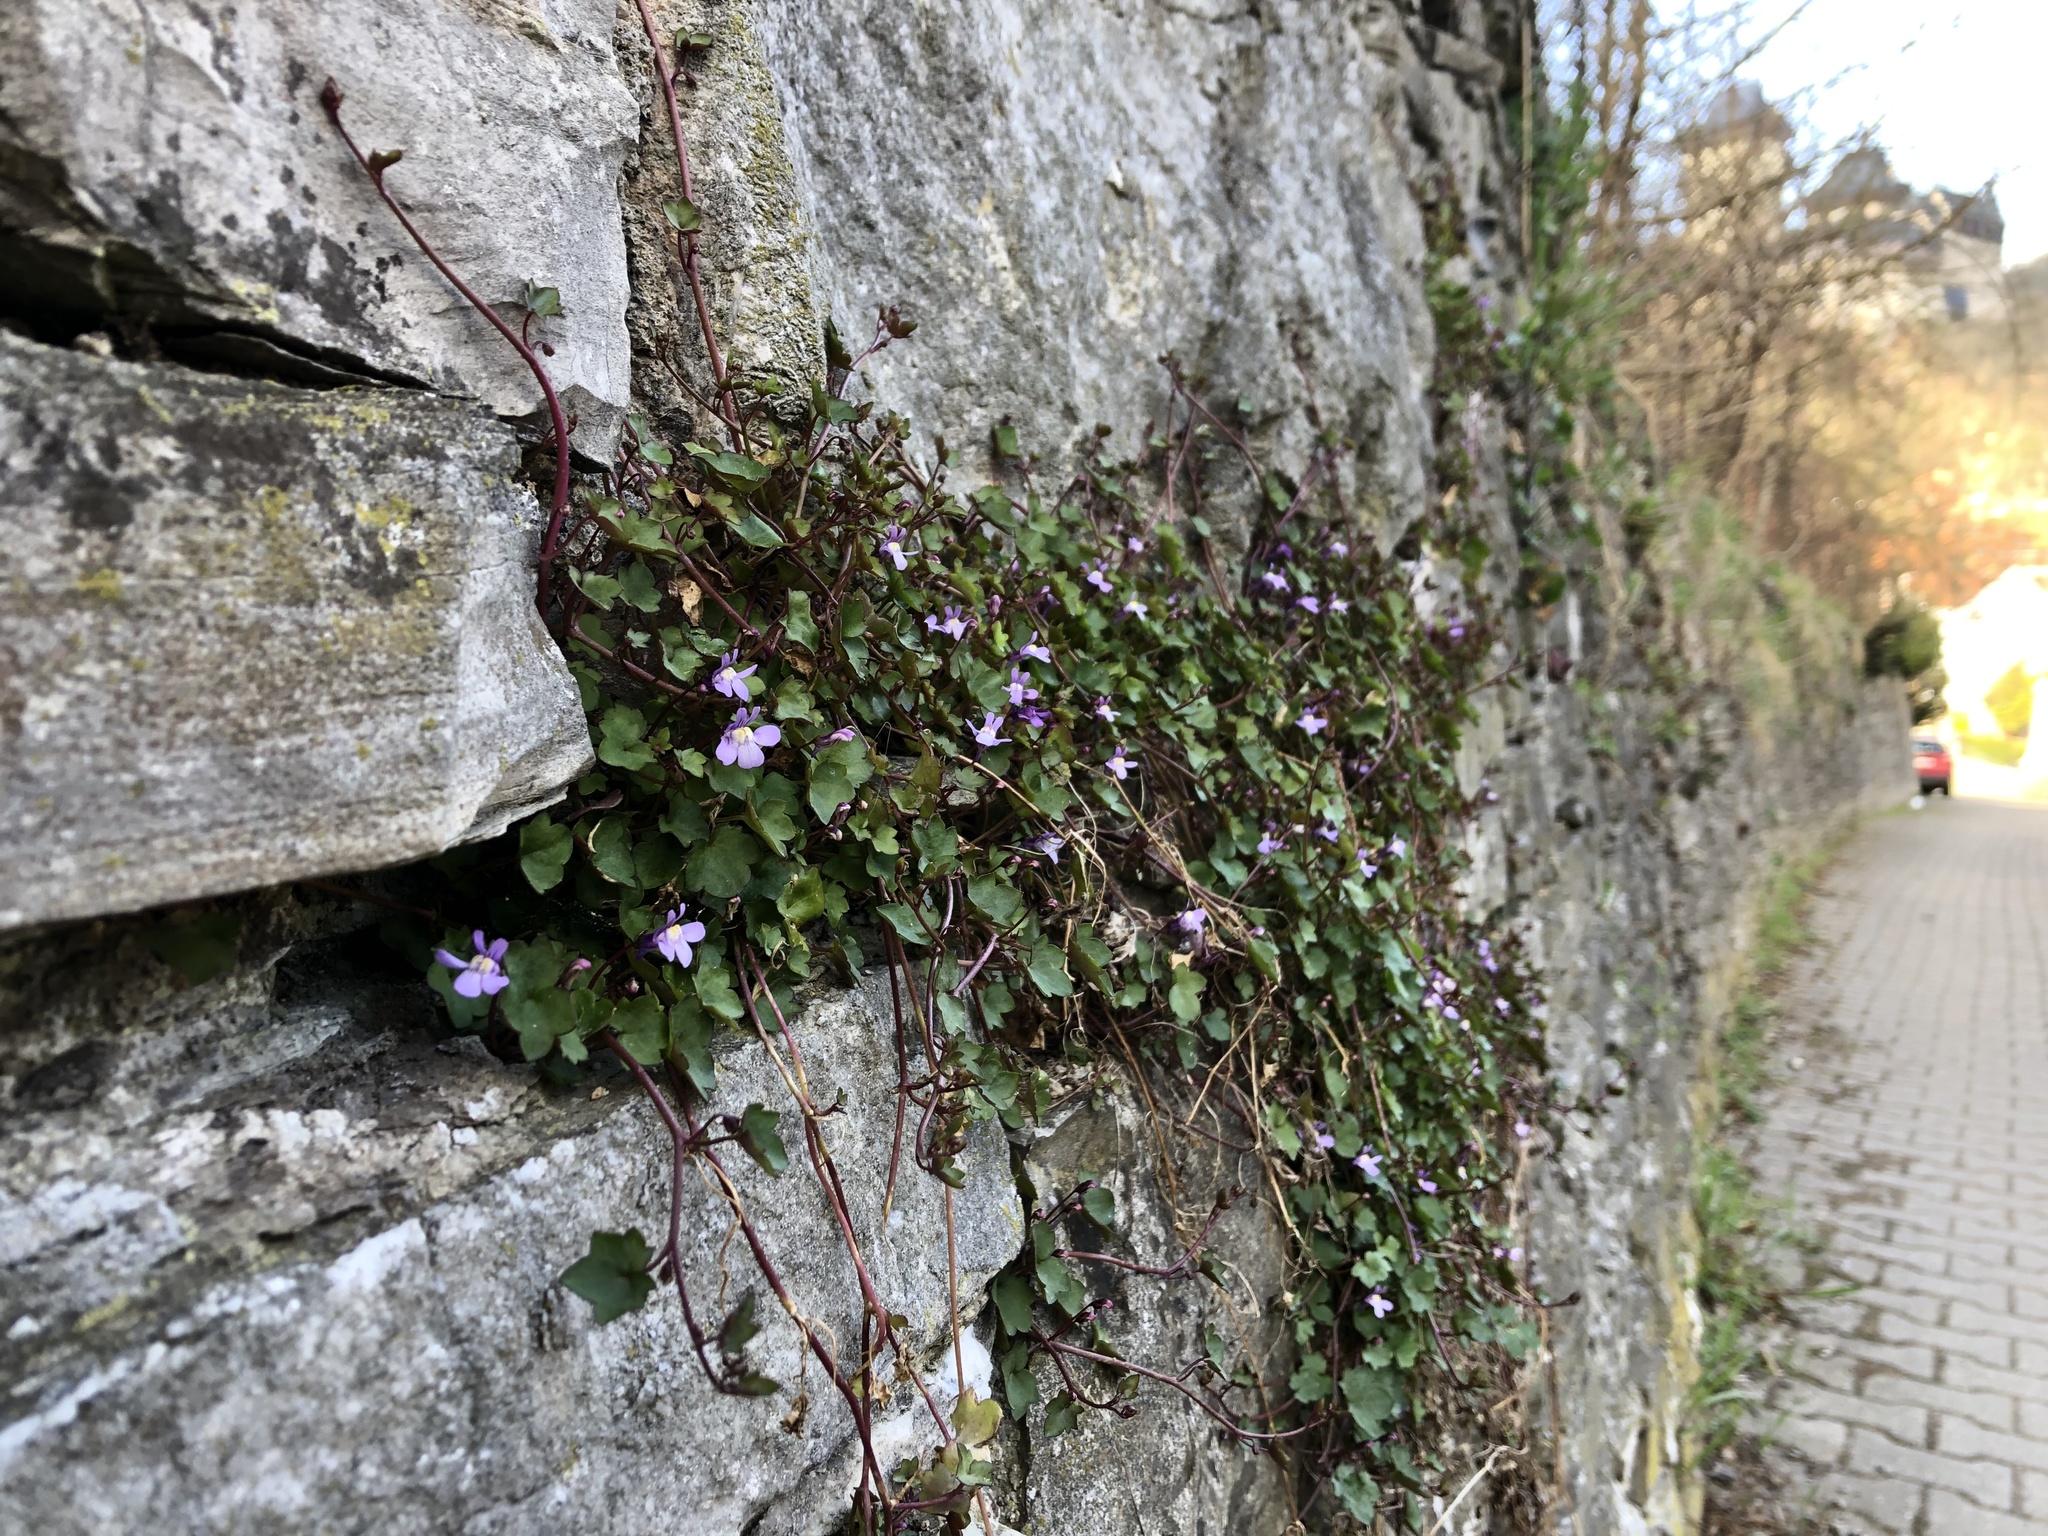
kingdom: Plantae
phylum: Tracheophyta
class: Magnoliopsida
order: Lamiales
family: Plantaginaceae
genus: Cymbalaria
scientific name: Cymbalaria muralis
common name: Ivy-leaved toadflax
